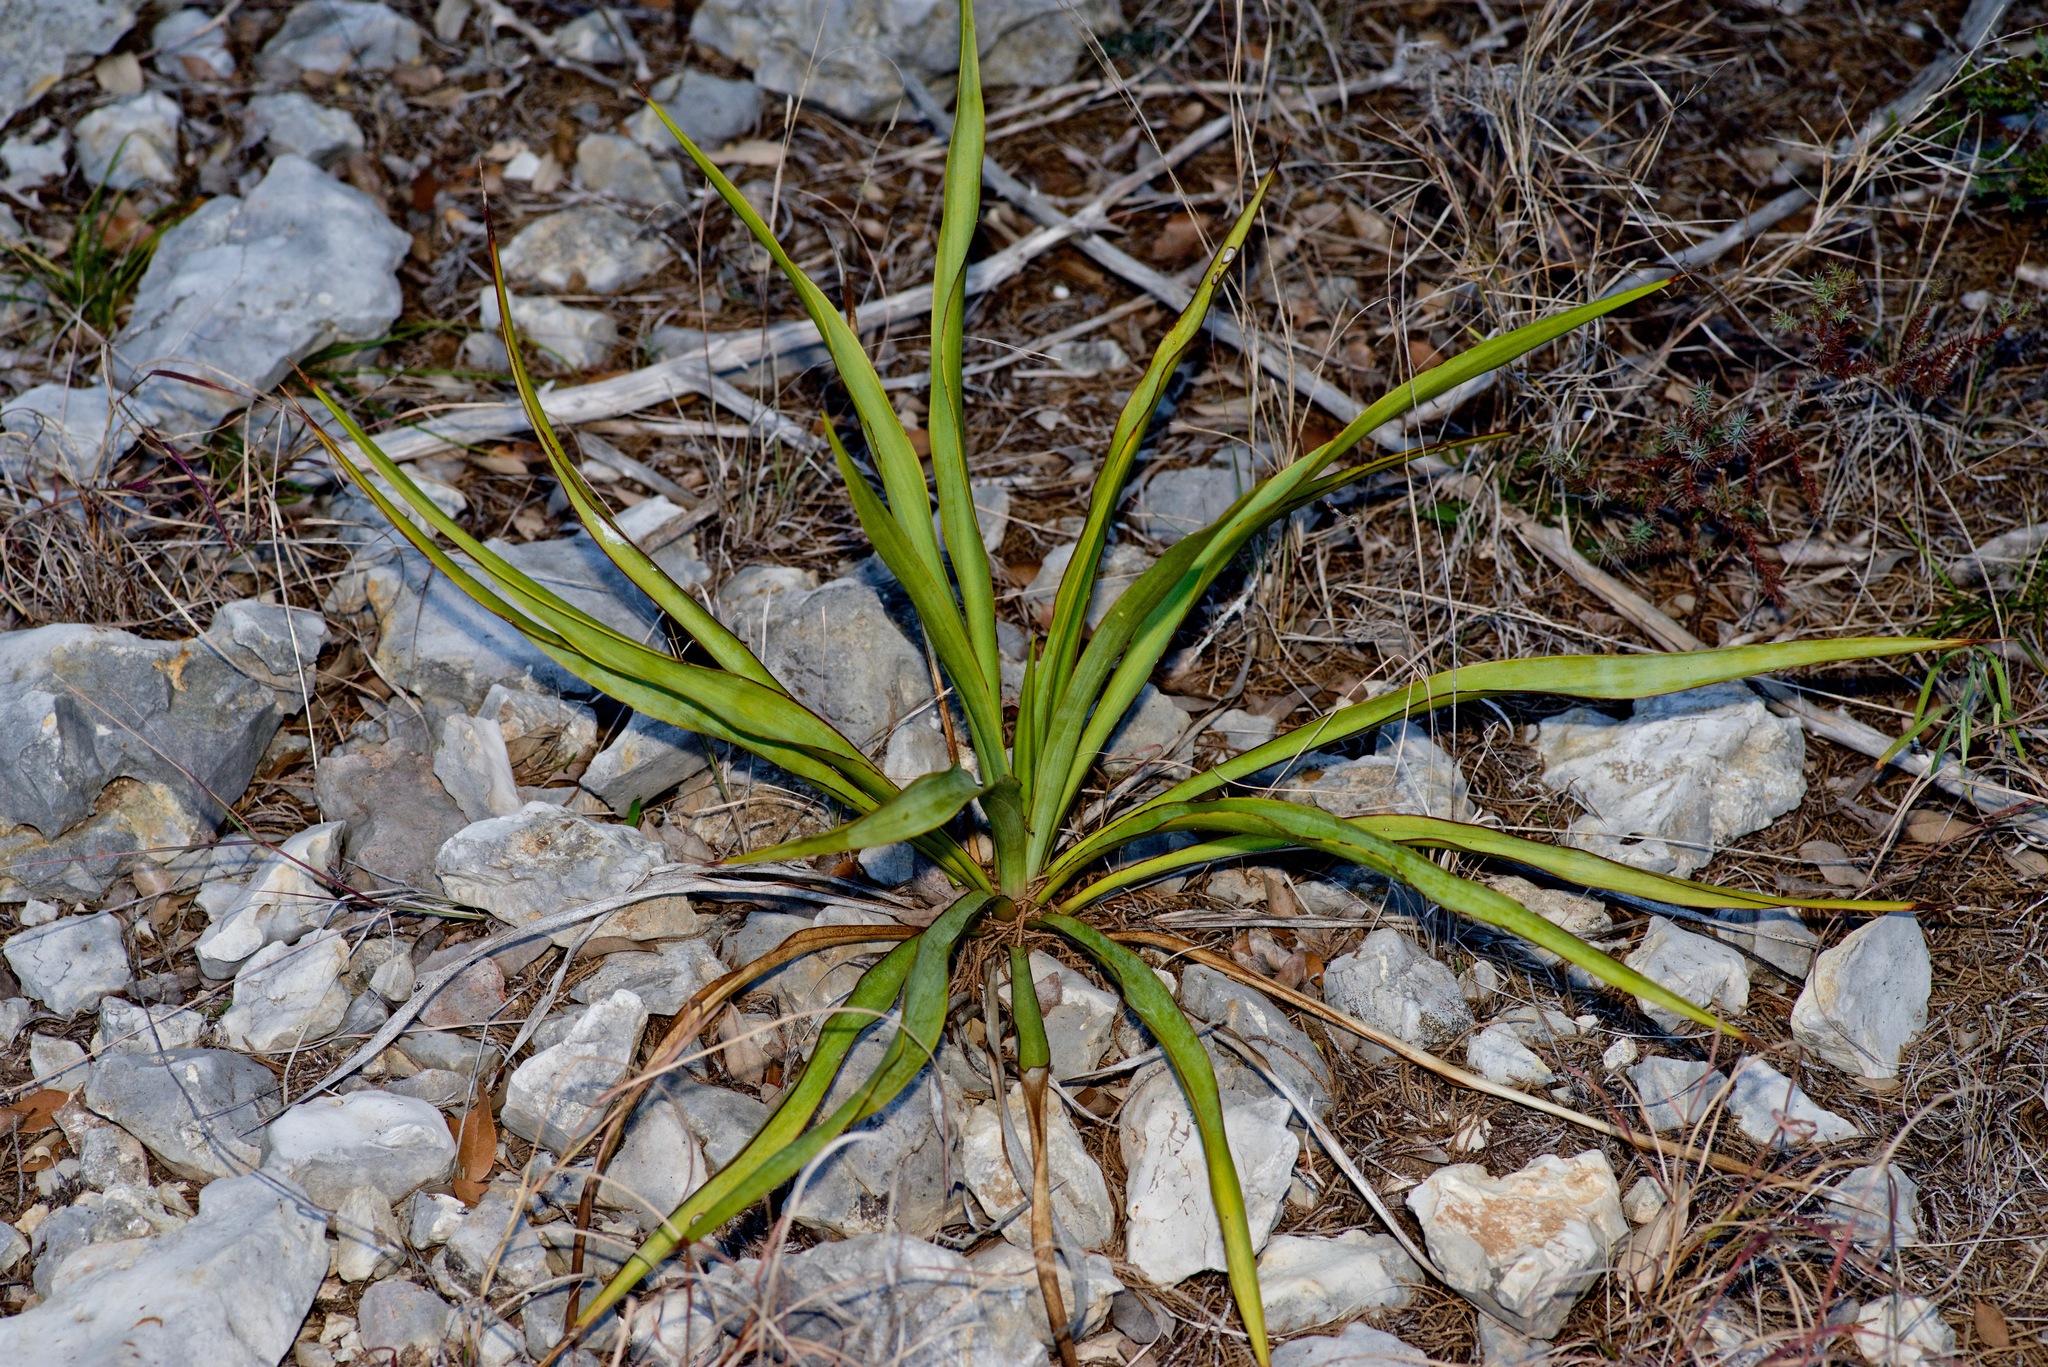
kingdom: Plantae
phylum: Tracheophyta
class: Liliopsida
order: Asparagales
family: Asparagaceae
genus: Yucca
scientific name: Yucca rupicola
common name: Twisted-leaf spanish-dagger
